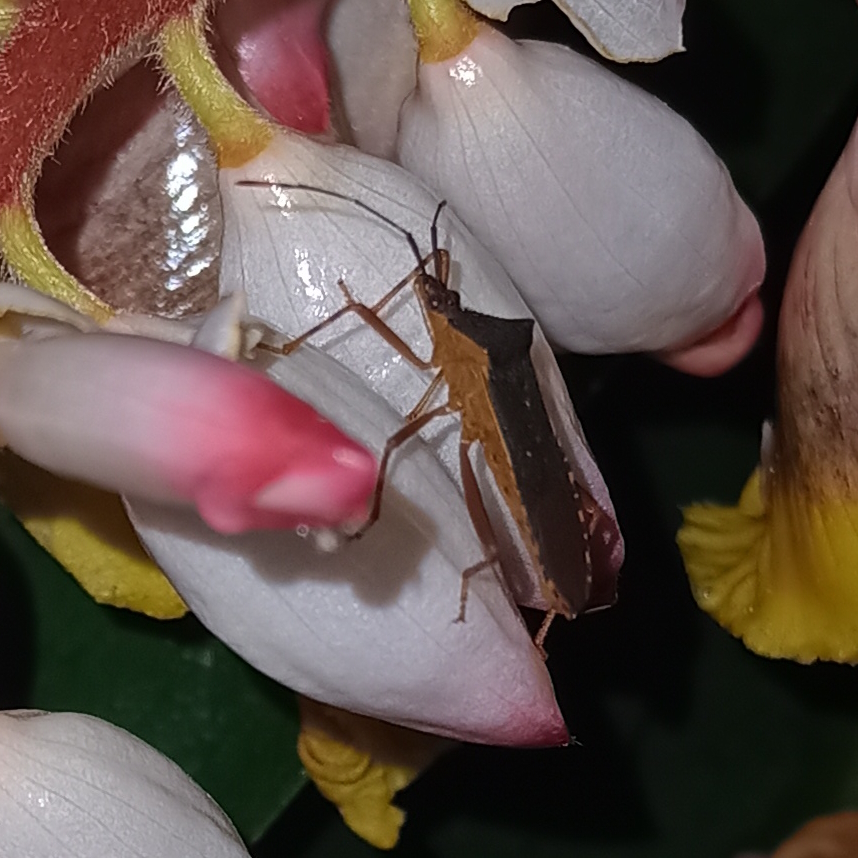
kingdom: Animalia
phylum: Arthropoda
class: Insecta
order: Hemiptera
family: Coreidae
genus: Leptoscelis
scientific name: Leptoscelis elongator
